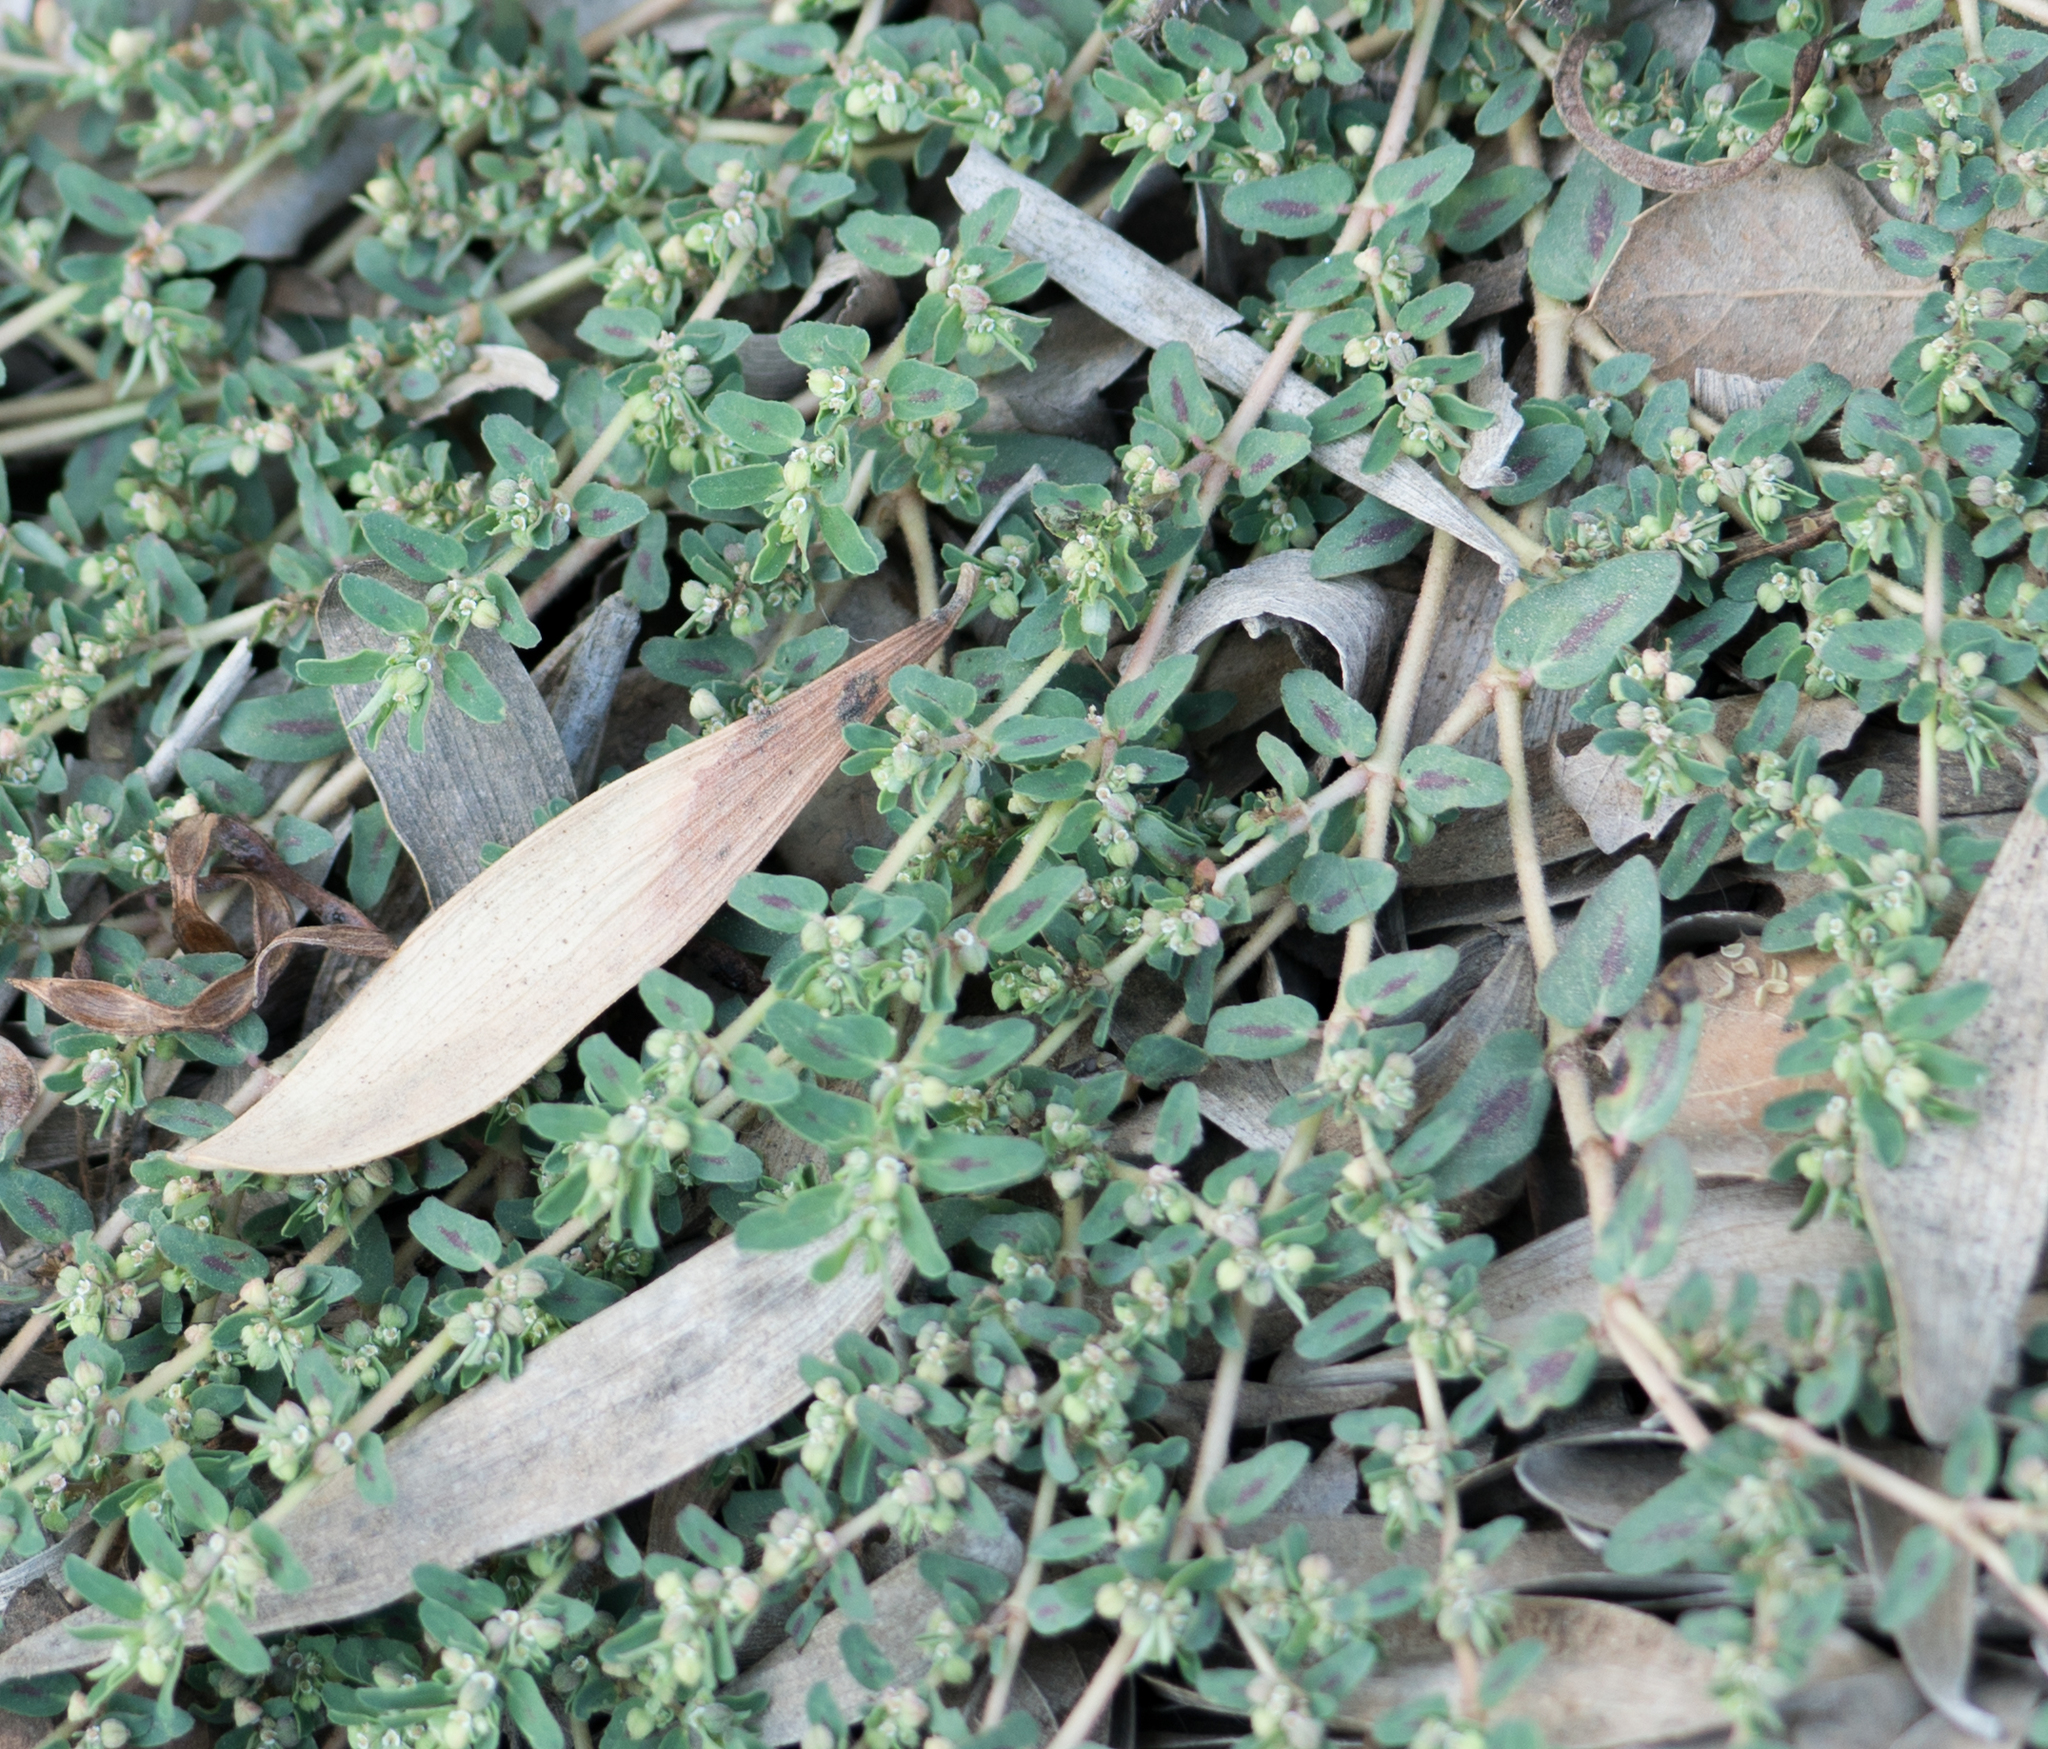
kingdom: Plantae
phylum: Tracheophyta
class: Magnoliopsida
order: Malpighiales
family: Euphorbiaceae
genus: Euphorbia
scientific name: Euphorbia maculata
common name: Spotted spurge
